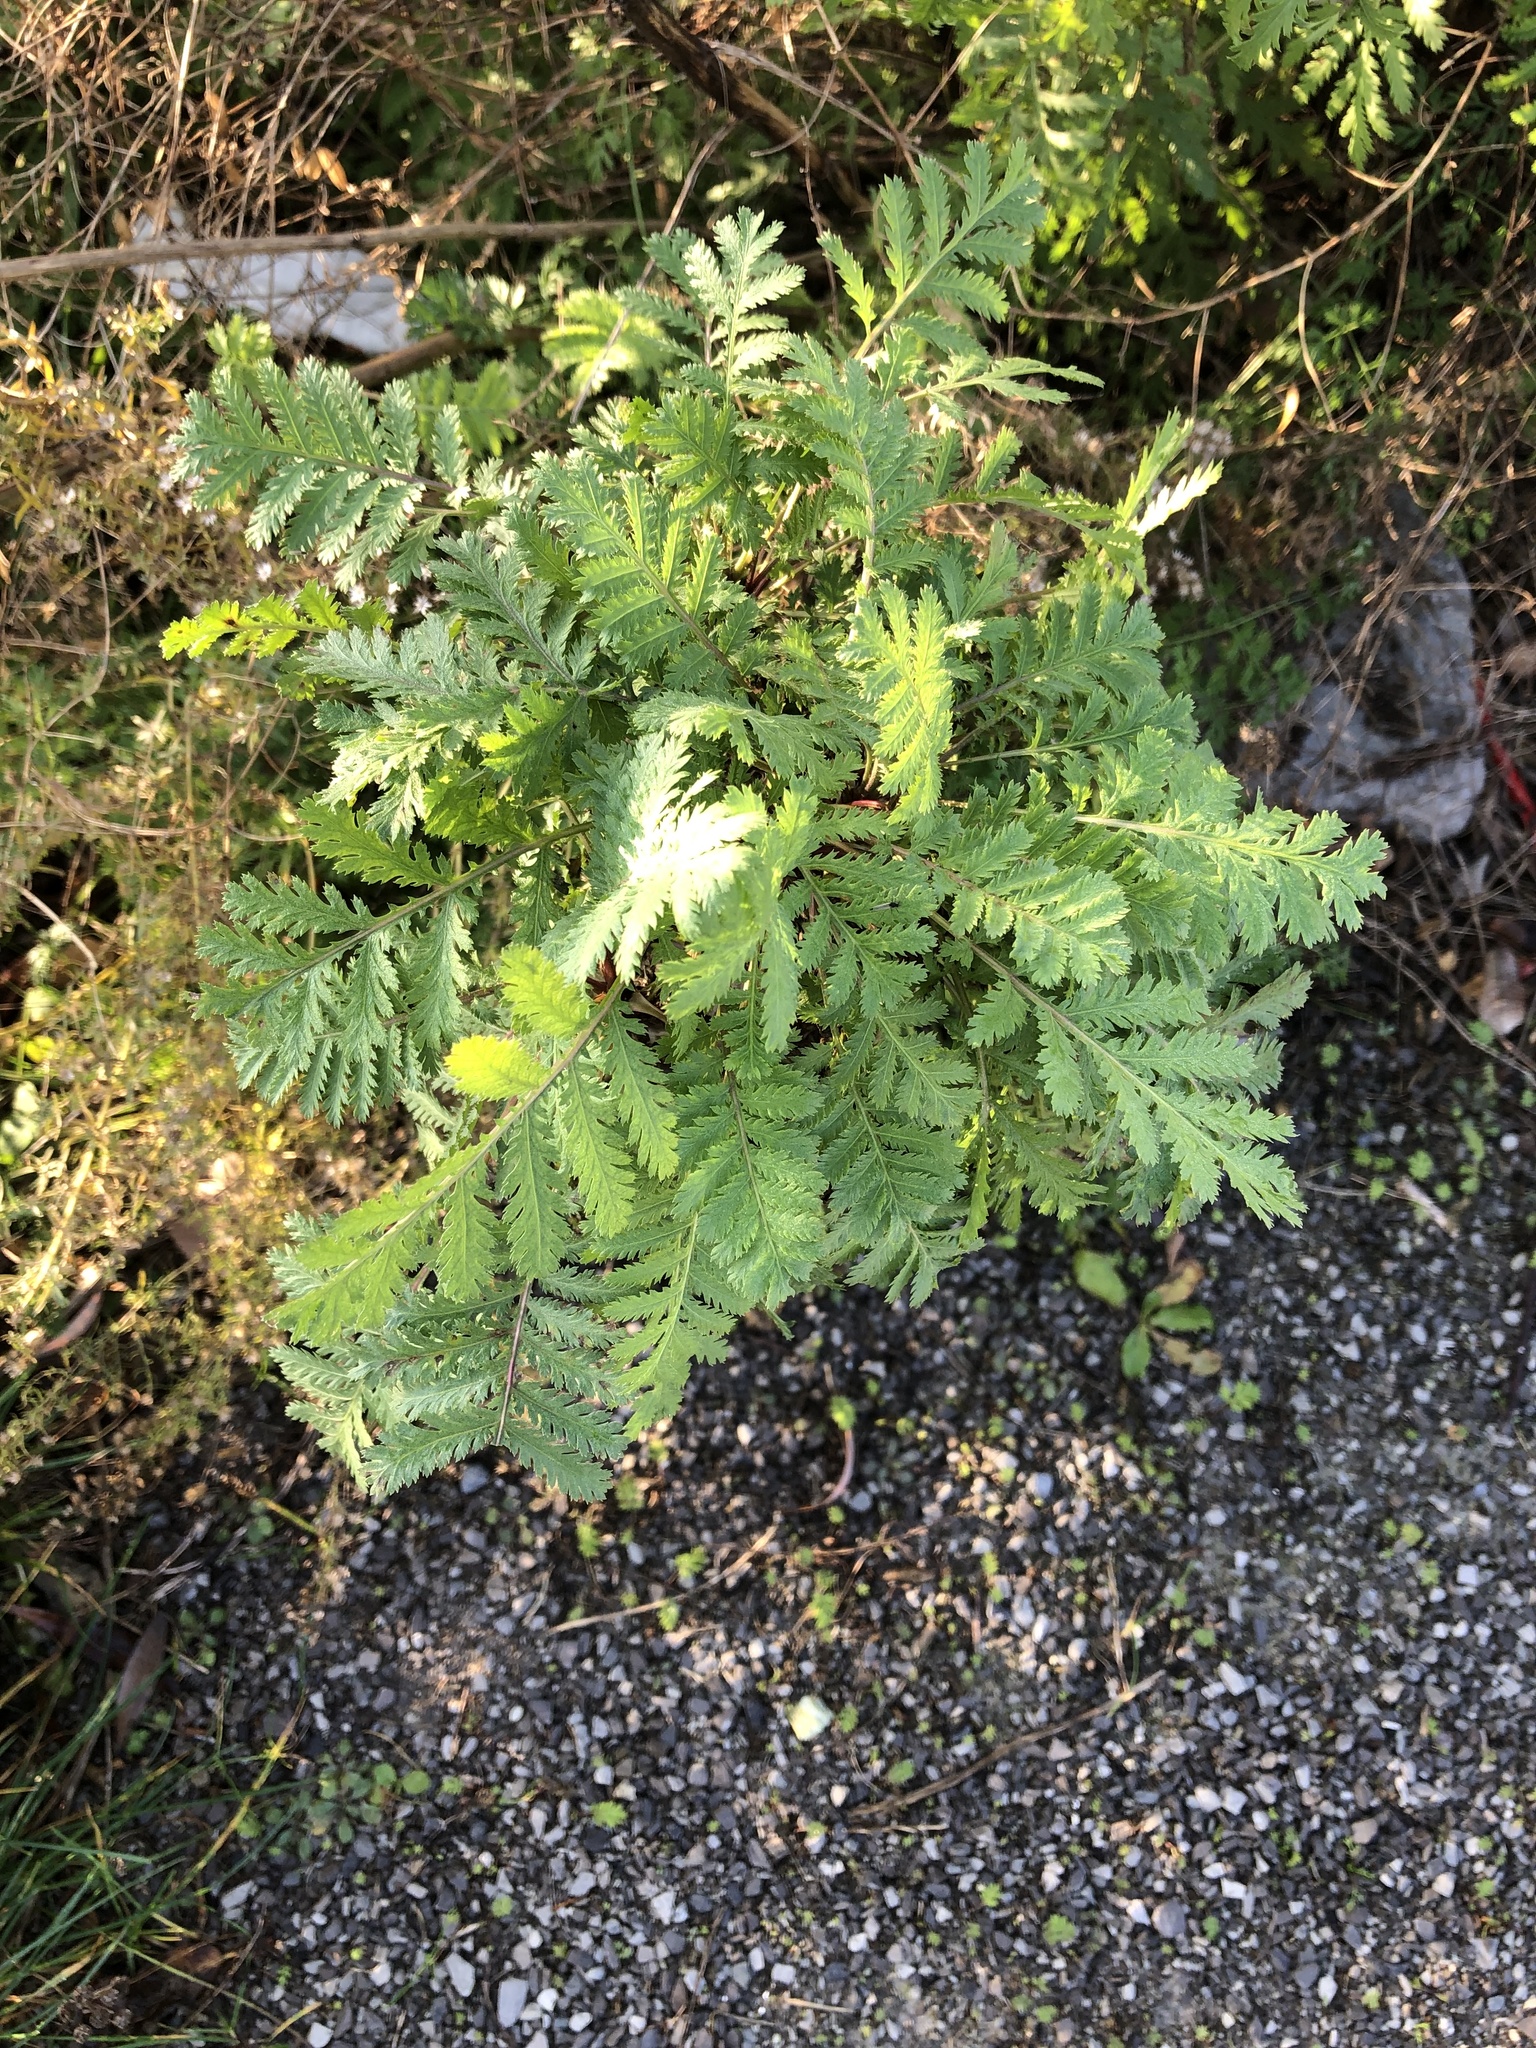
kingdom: Plantae
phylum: Tracheophyta
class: Magnoliopsida
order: Asterales
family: Asteraceae
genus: Tanacetum
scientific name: Tanacetum vulgare
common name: Common tansy
